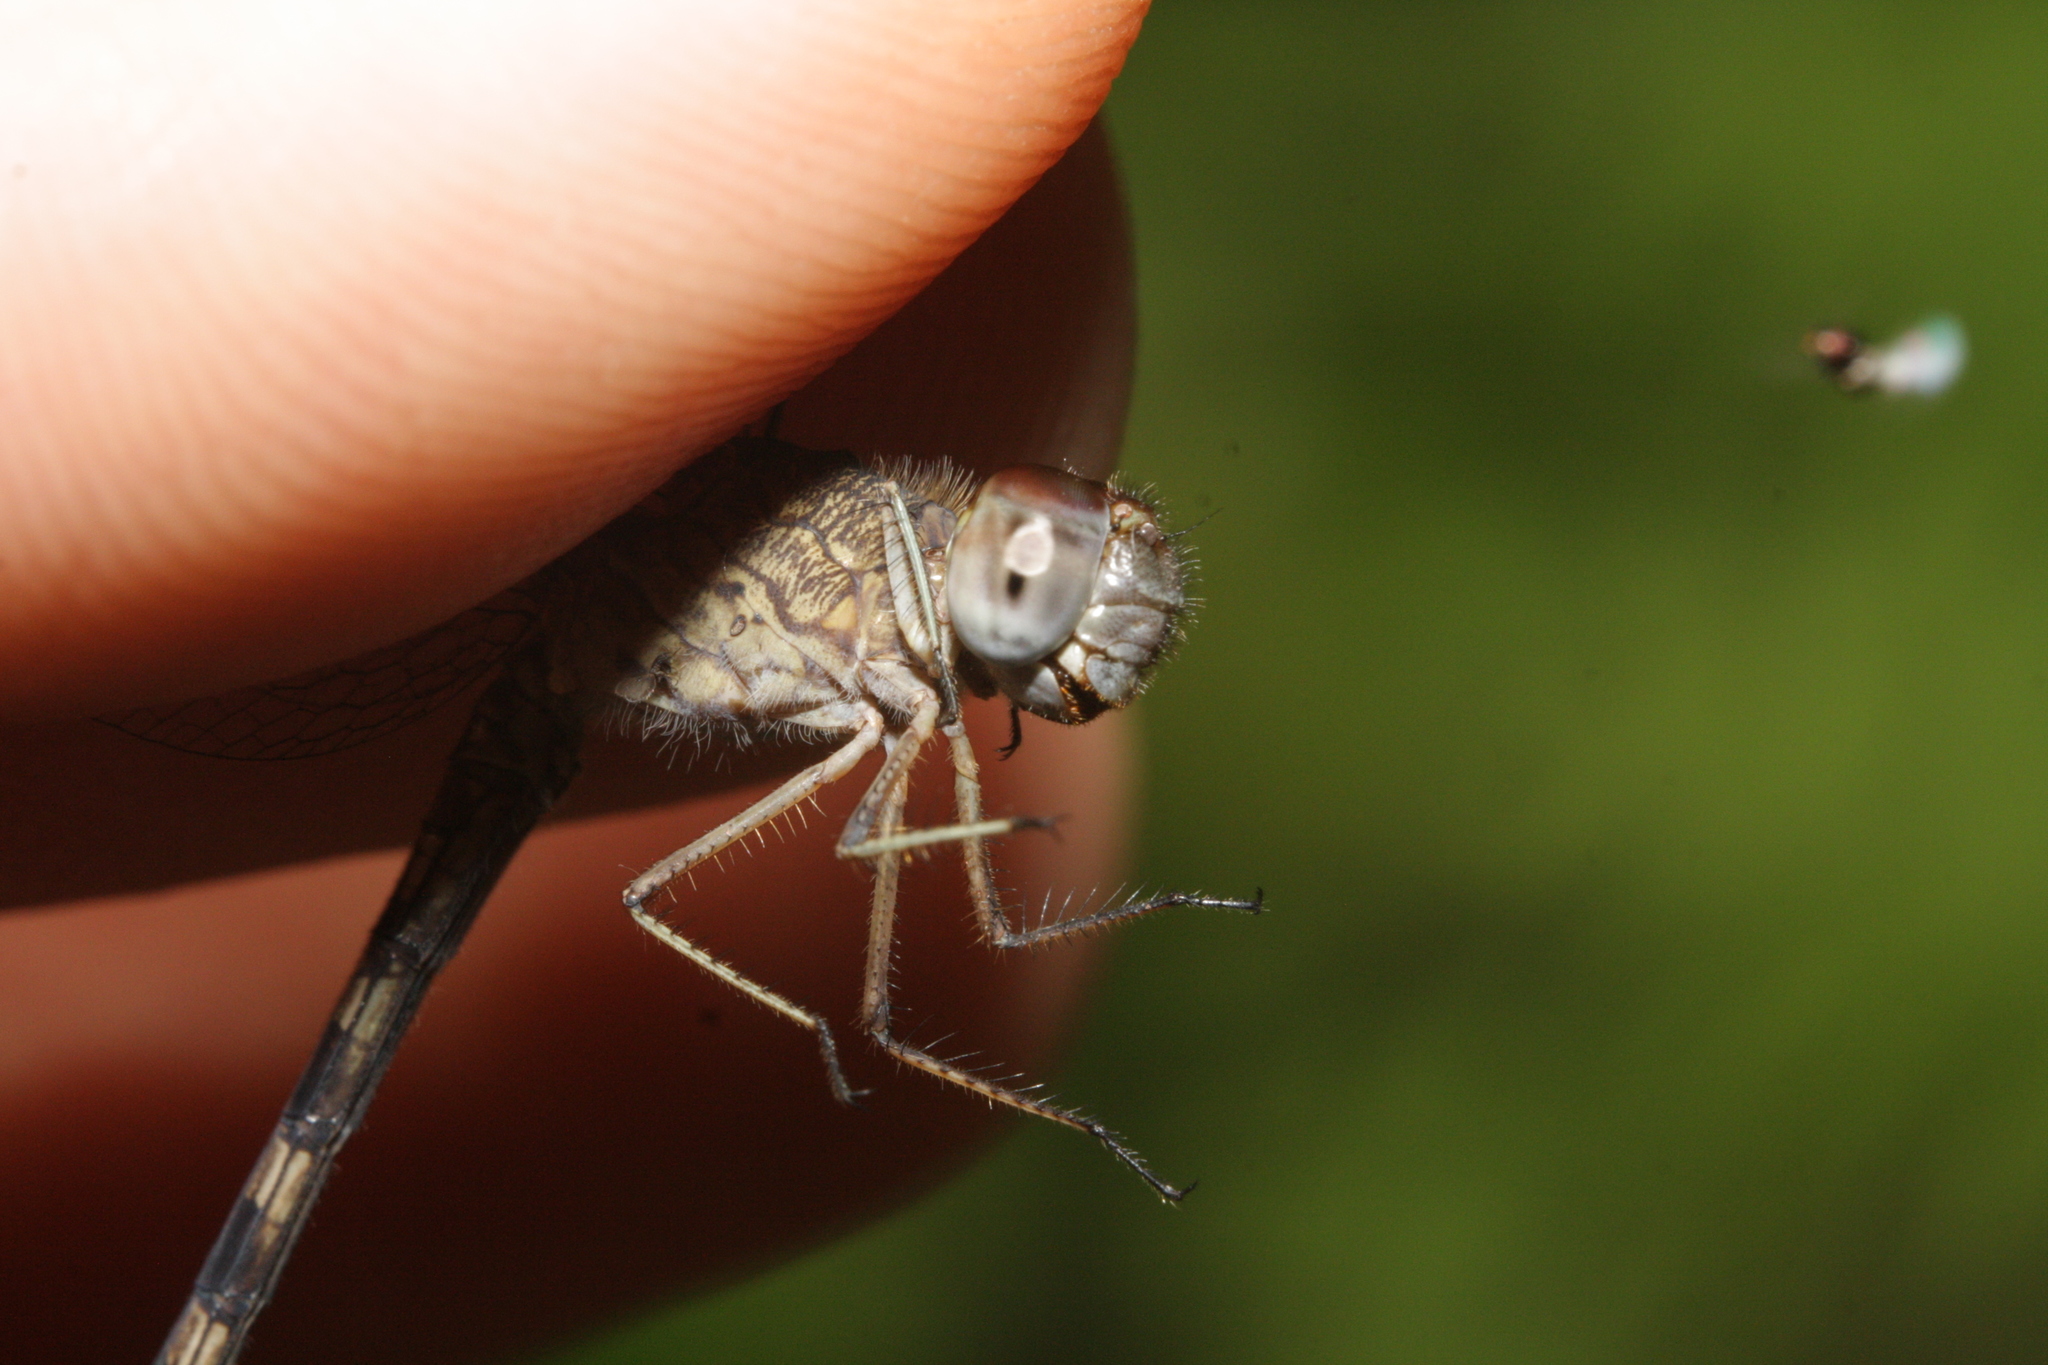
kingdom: Animalia
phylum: Arthropoda
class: Insecta
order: Odonata
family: Libellulidae
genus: Uracis
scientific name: Uracis imbuta
